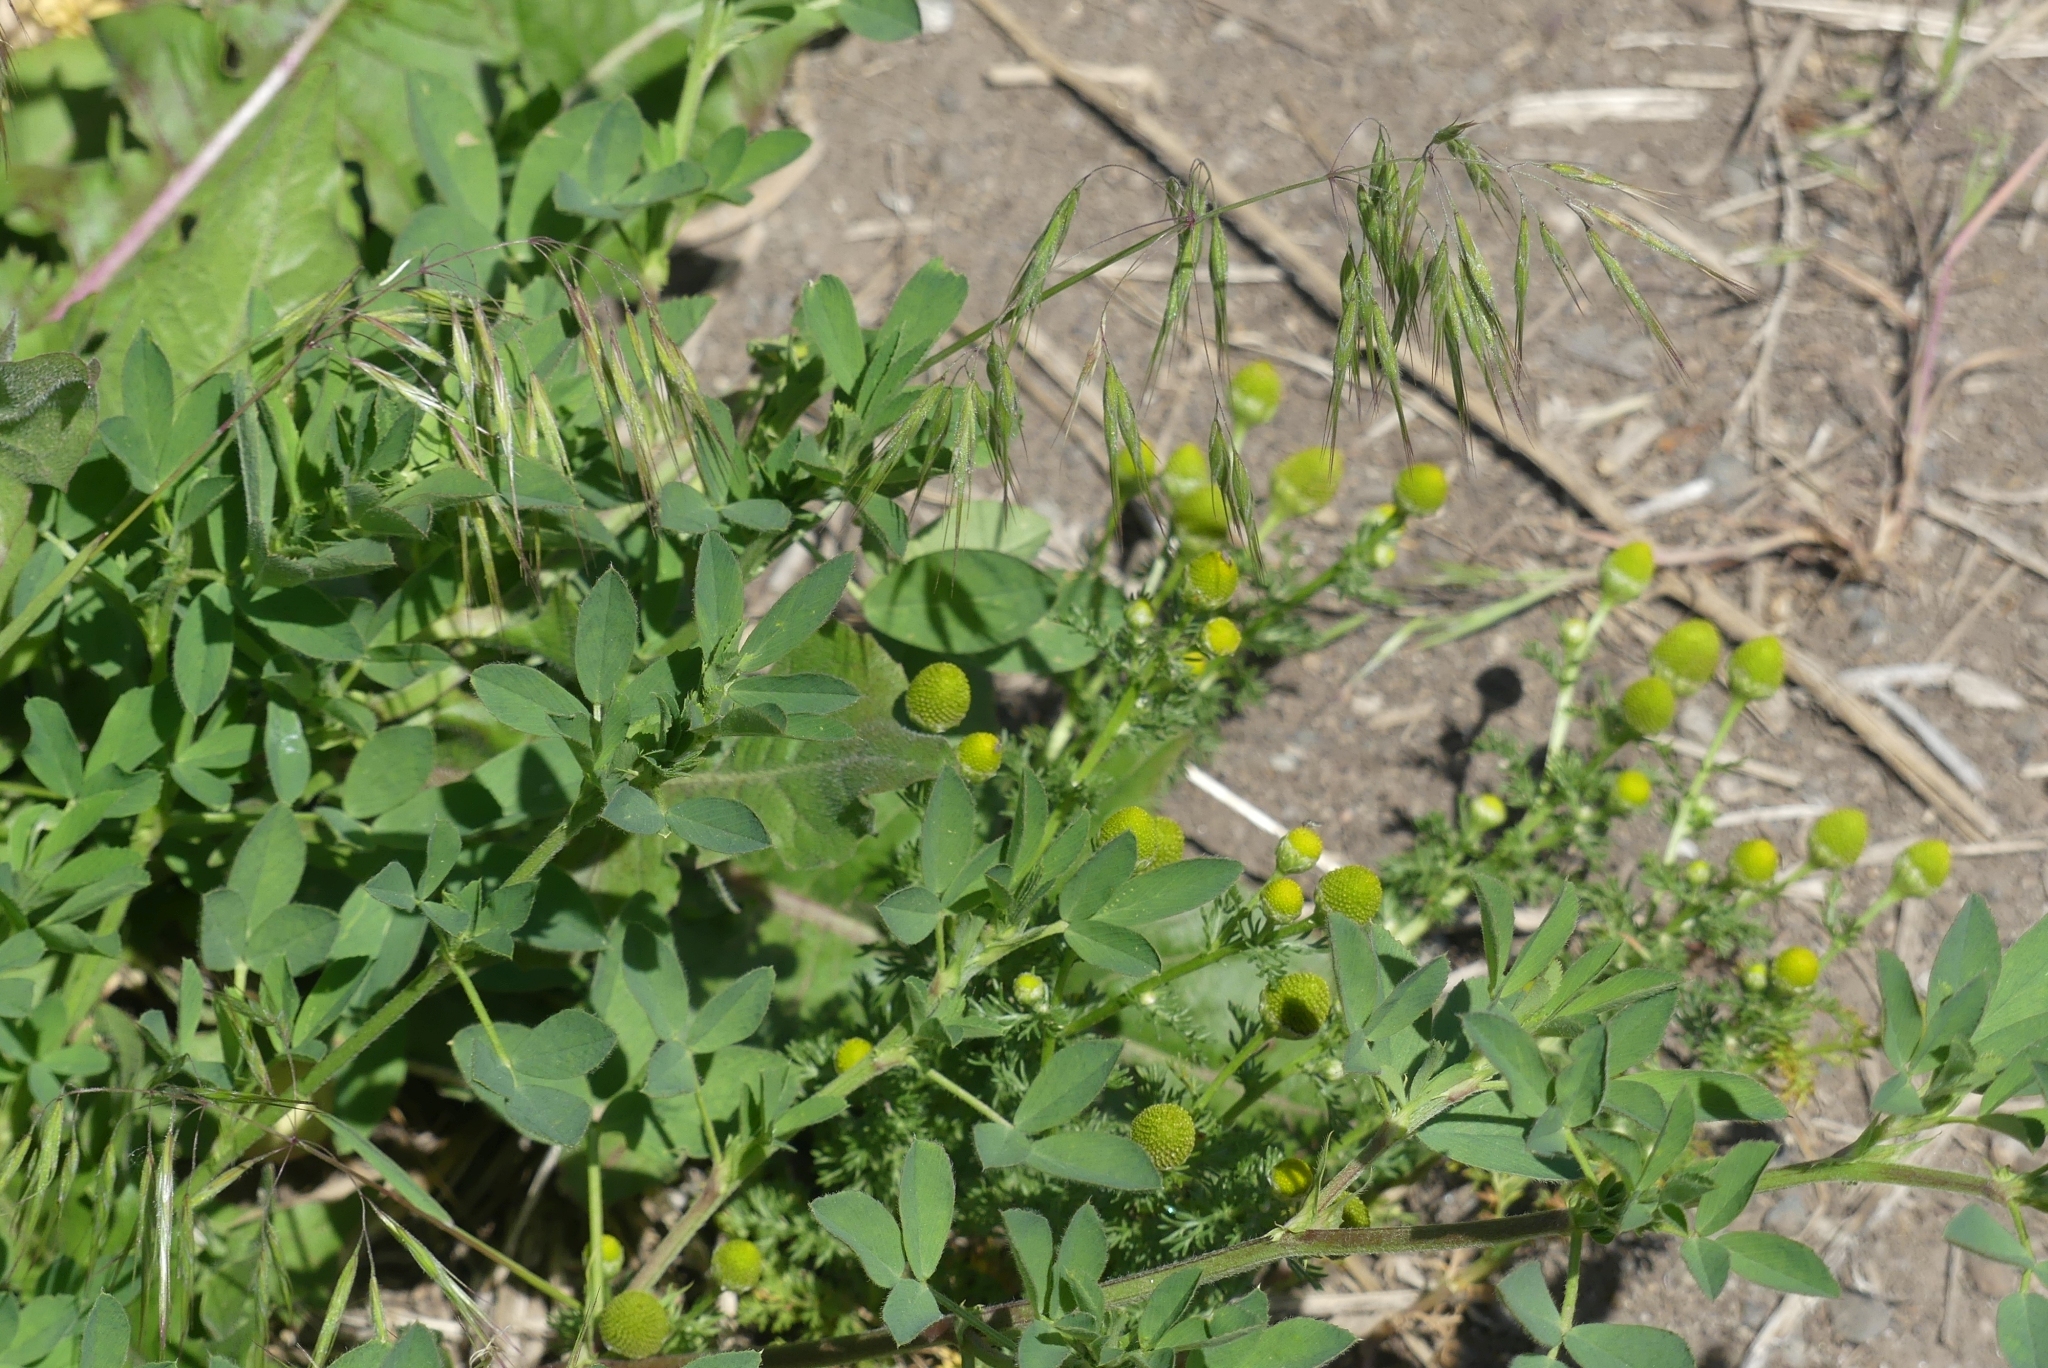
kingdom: Plantae
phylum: Tracheophyta
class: Magnoliopsida
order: Asterales
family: Asteraceae
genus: Matricaria
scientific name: Matricaria discoidea
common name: Disc mayweed
